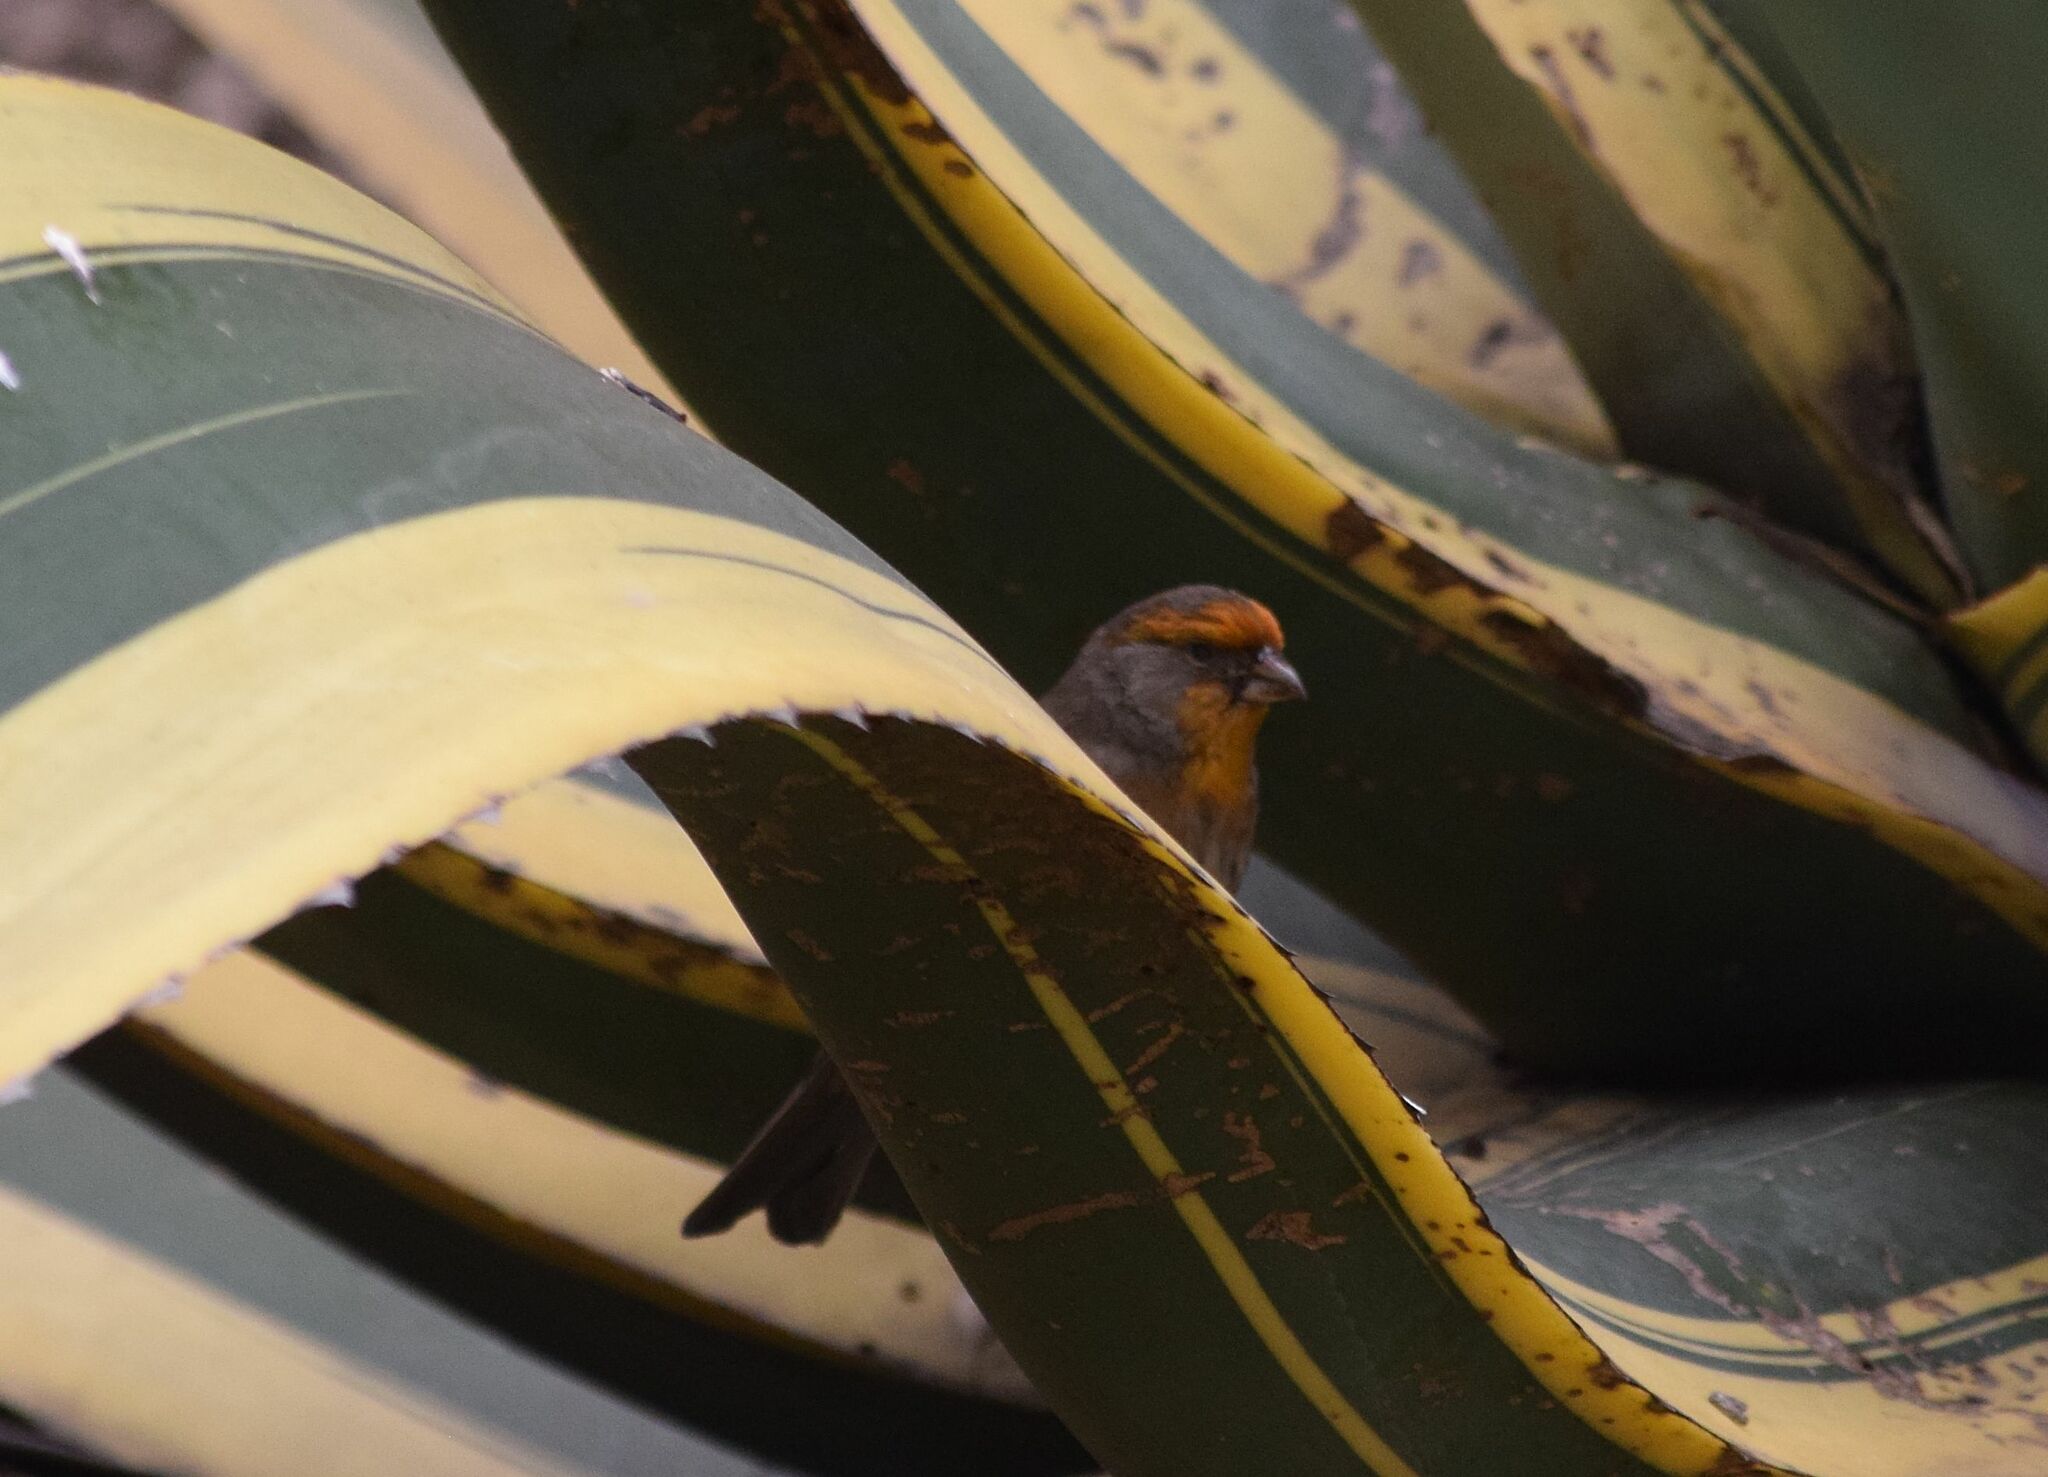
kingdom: Animalia
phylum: Chordata
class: Aves
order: Passeriformes
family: Fringillidae
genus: Haemorhous
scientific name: Haemorhous mexicanus
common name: House finch
